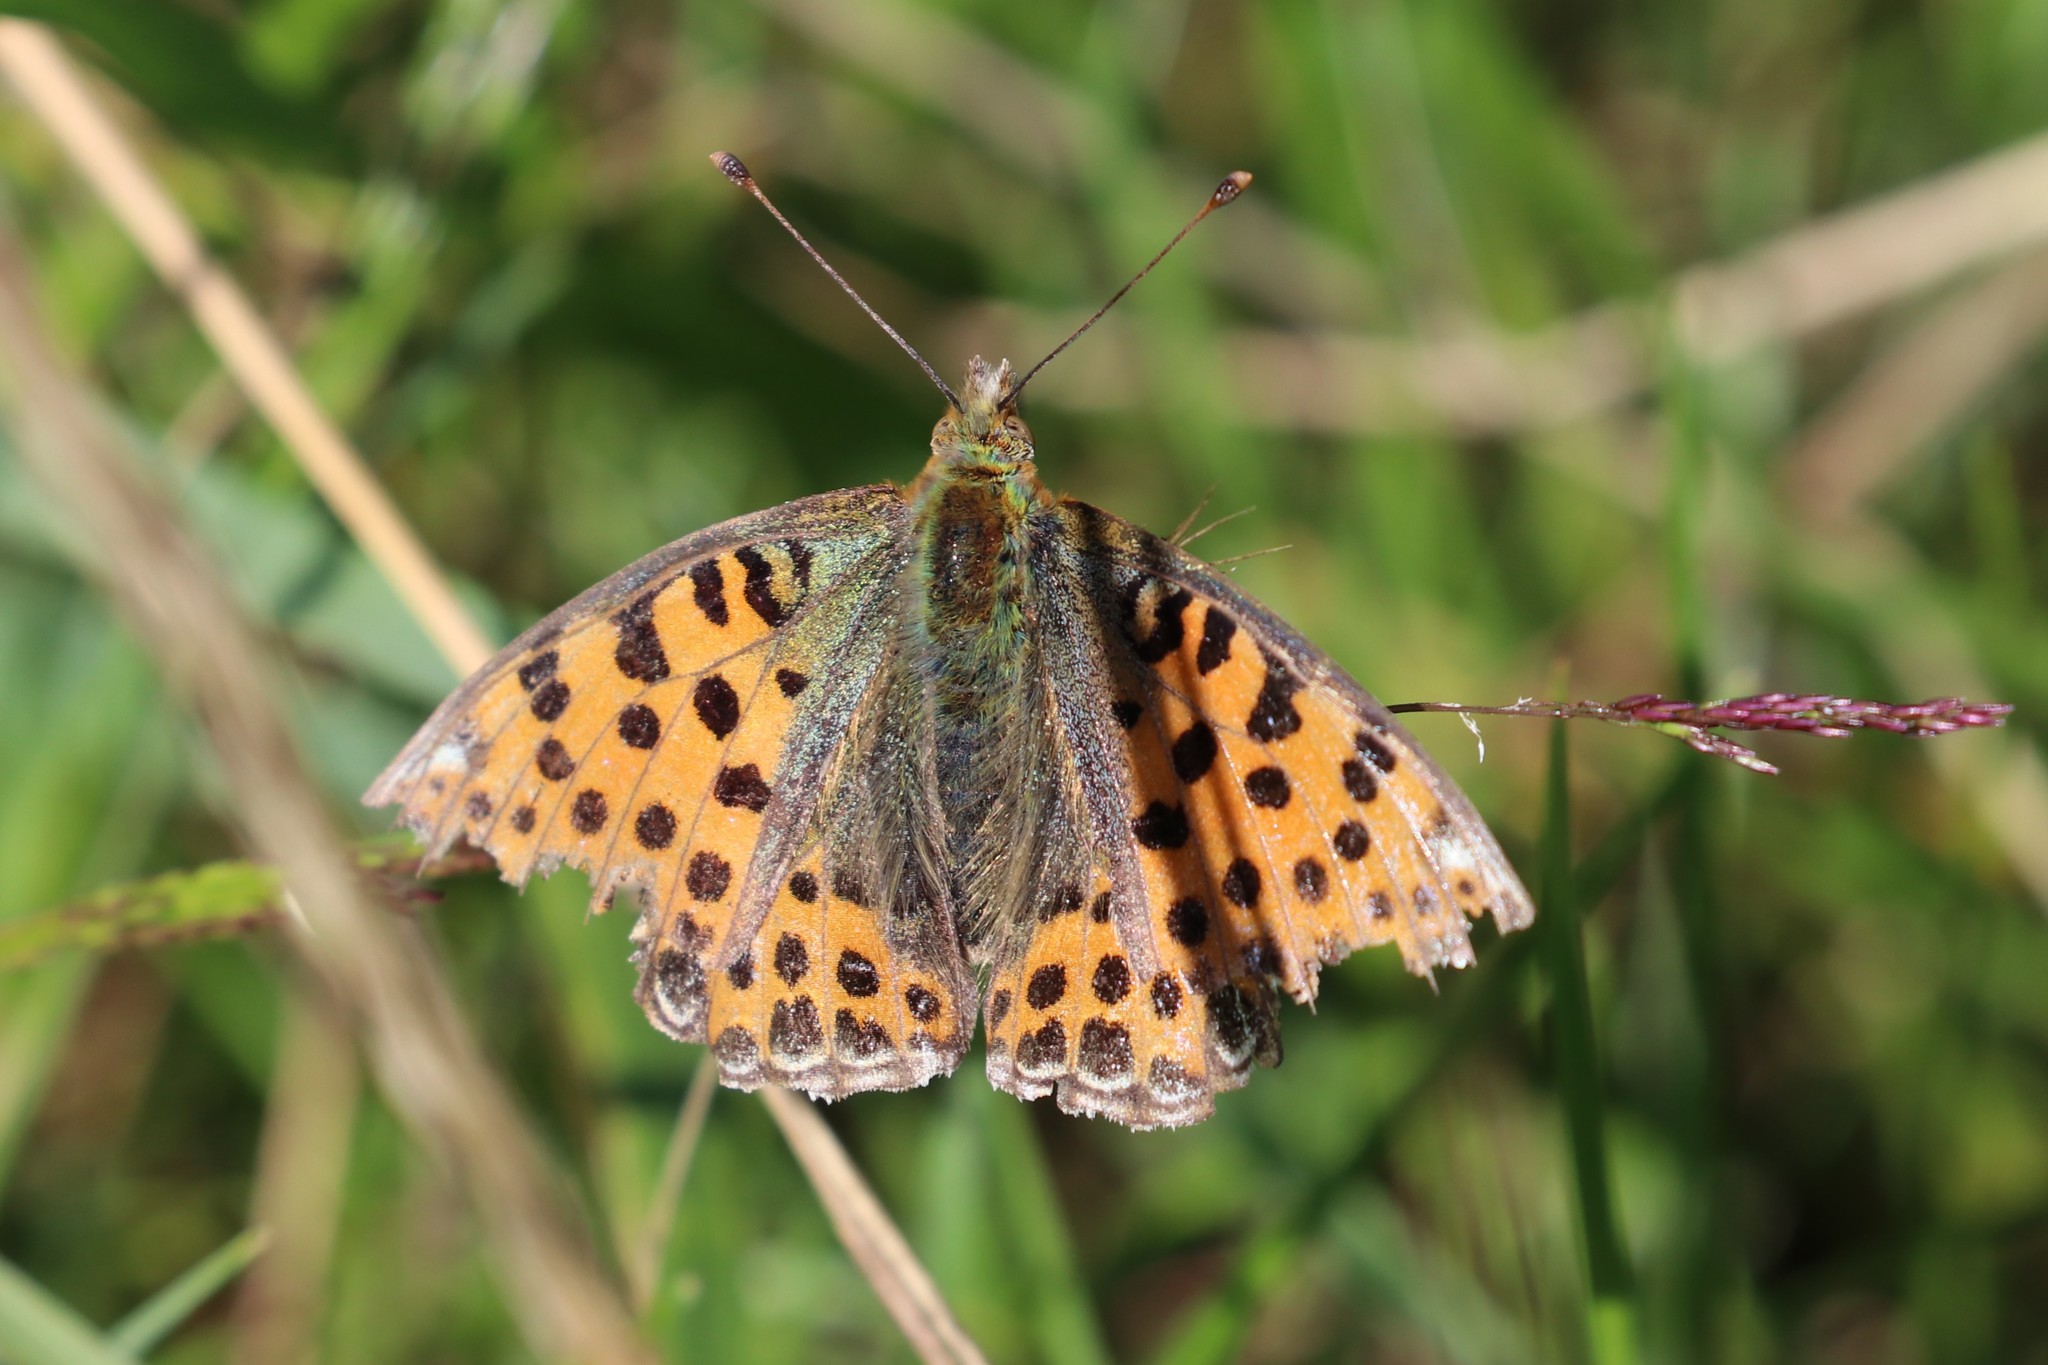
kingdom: Animalia
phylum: Arthropoda
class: Insecta
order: Lepidoptera
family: Nymphalidae
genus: Issoria
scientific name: Issoria lathonia
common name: Queen of spain fritillary
